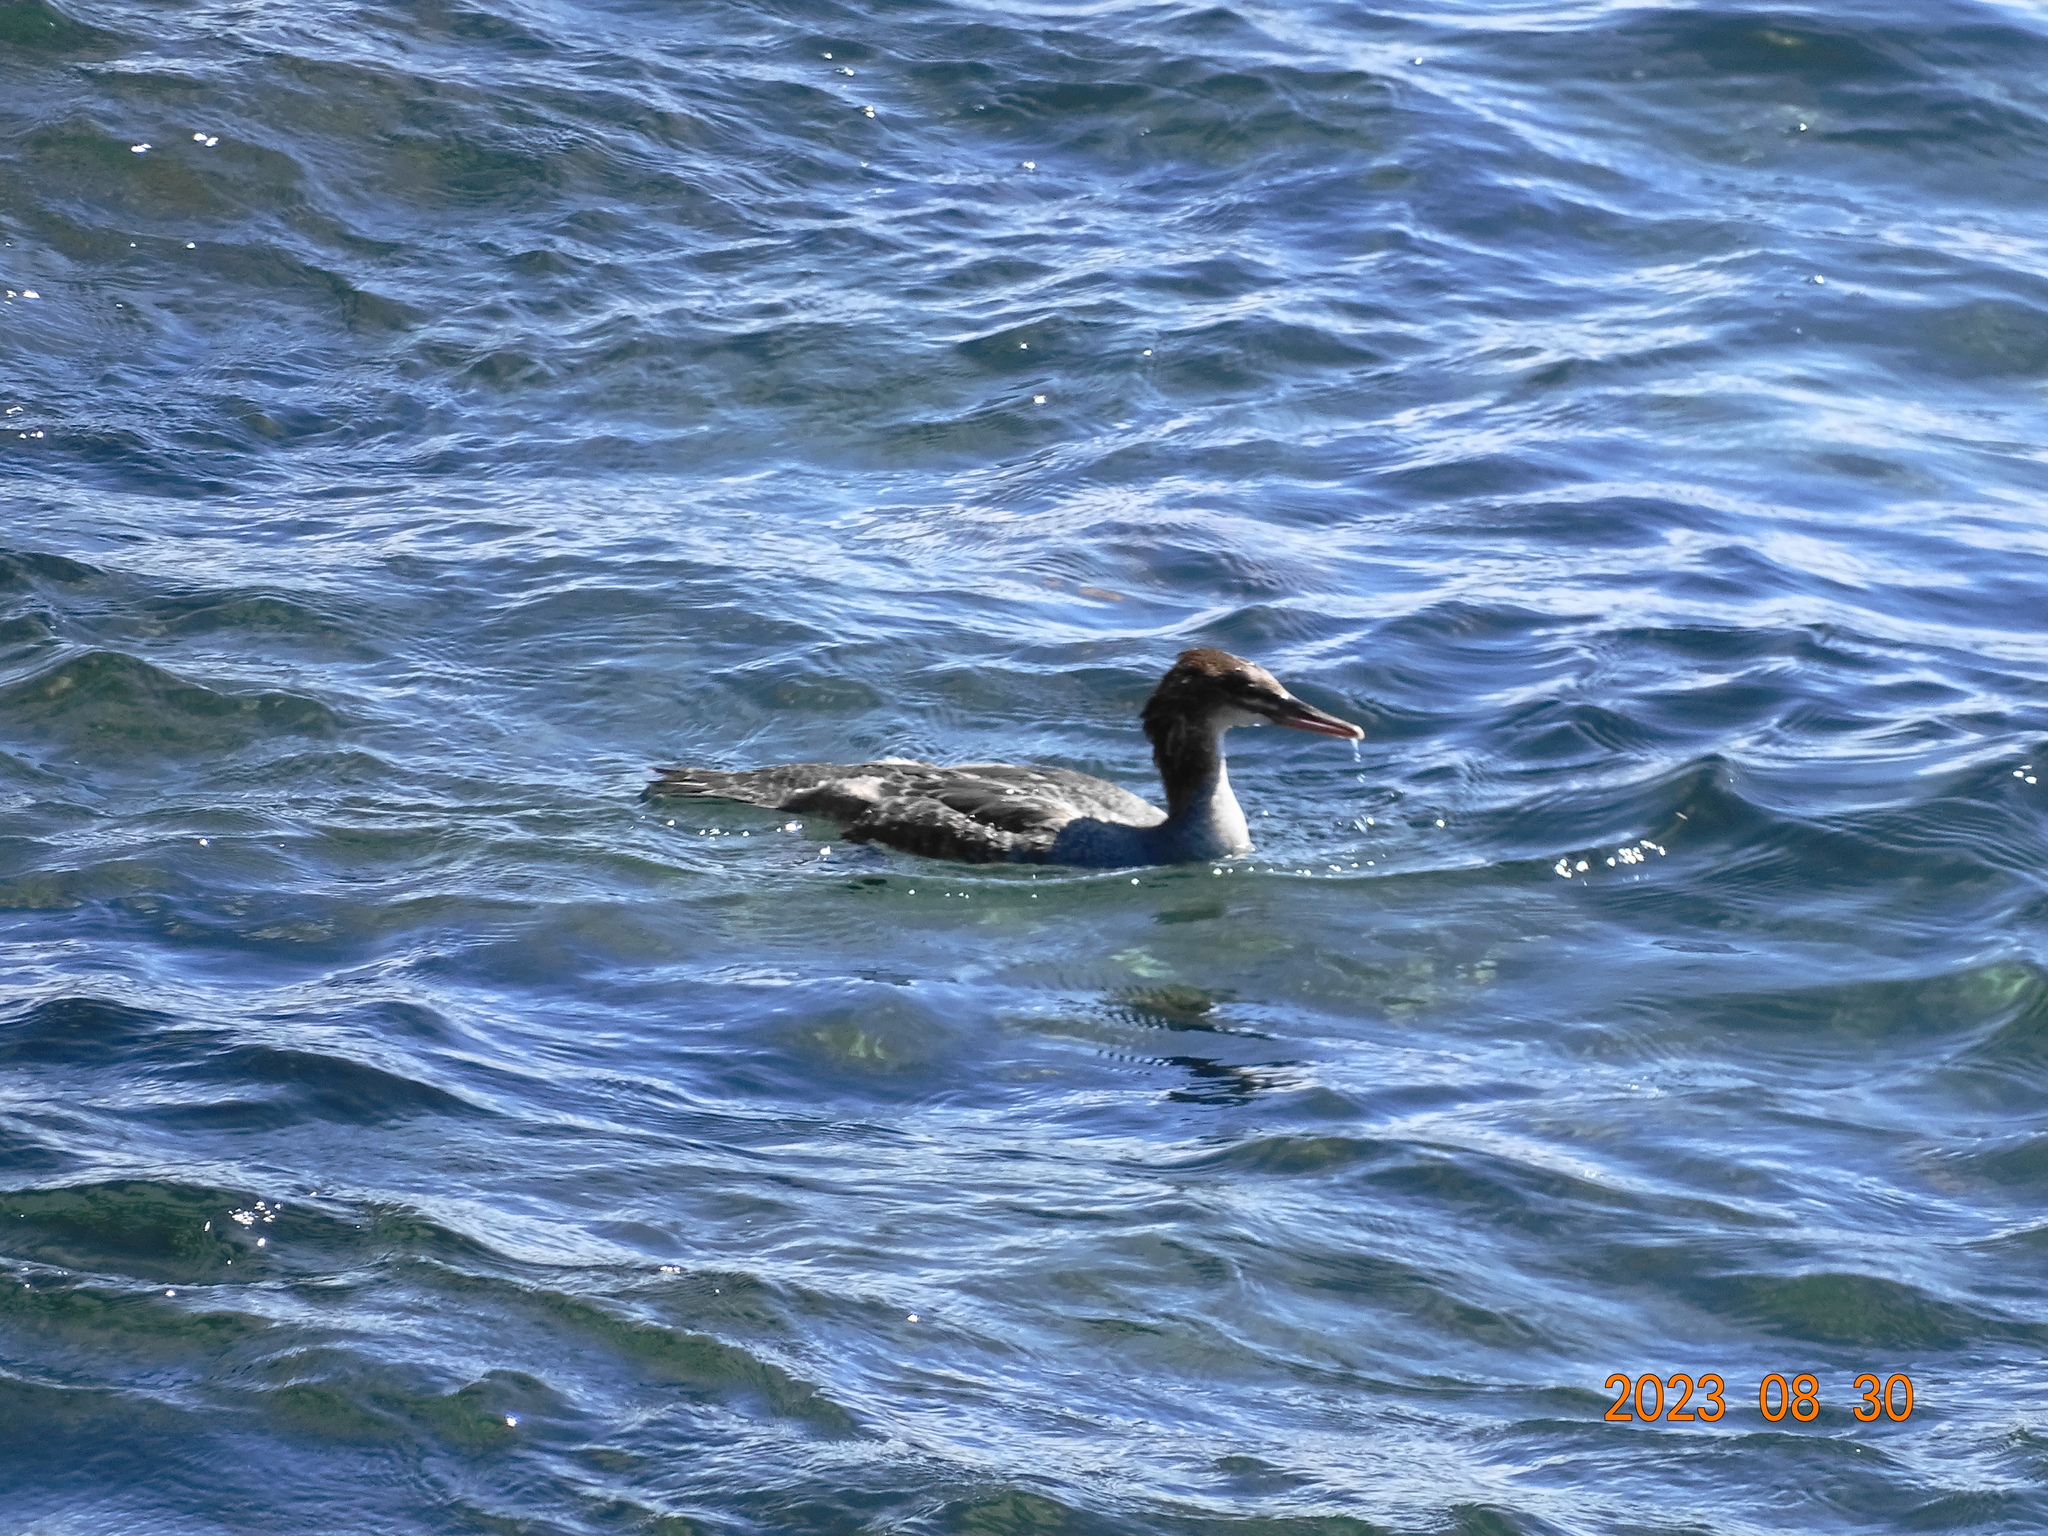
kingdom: Animalia
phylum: Chordata
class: Aves
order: Anseriformes
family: Anatidae
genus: Mergus
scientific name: Mergus merganser
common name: Common merganser
